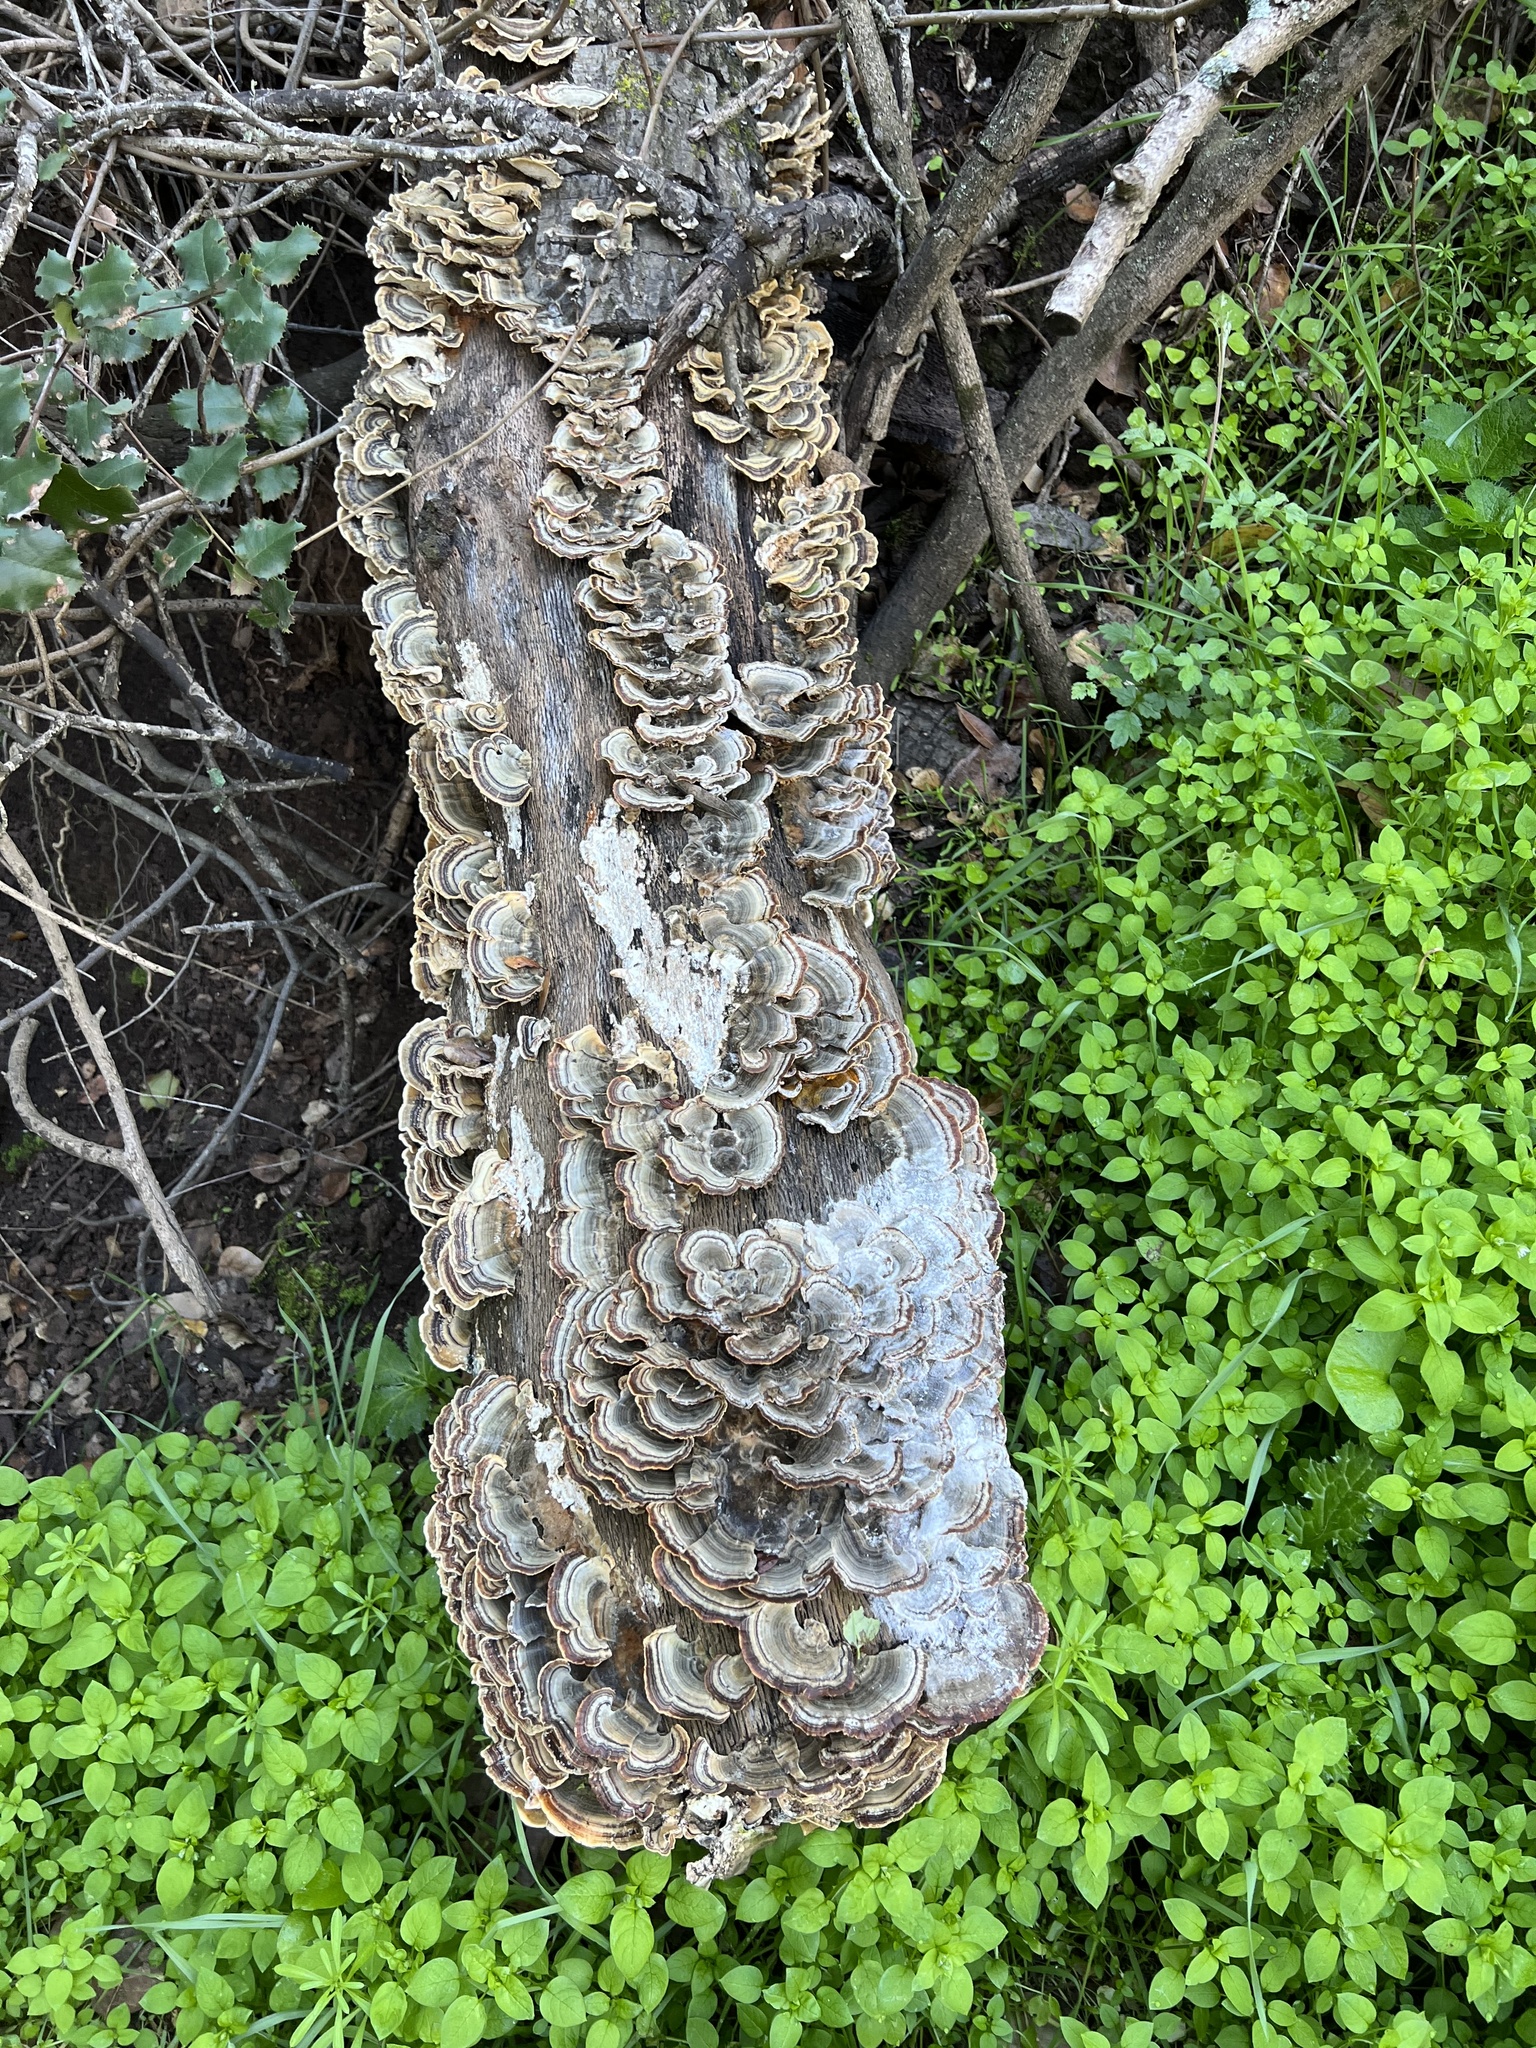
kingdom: Fungi
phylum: Basidiomycota
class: Agaricomycetes
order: Polyporales
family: Polyporaceae
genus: Trametes
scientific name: Trametes versicolor
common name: Turkeytail
